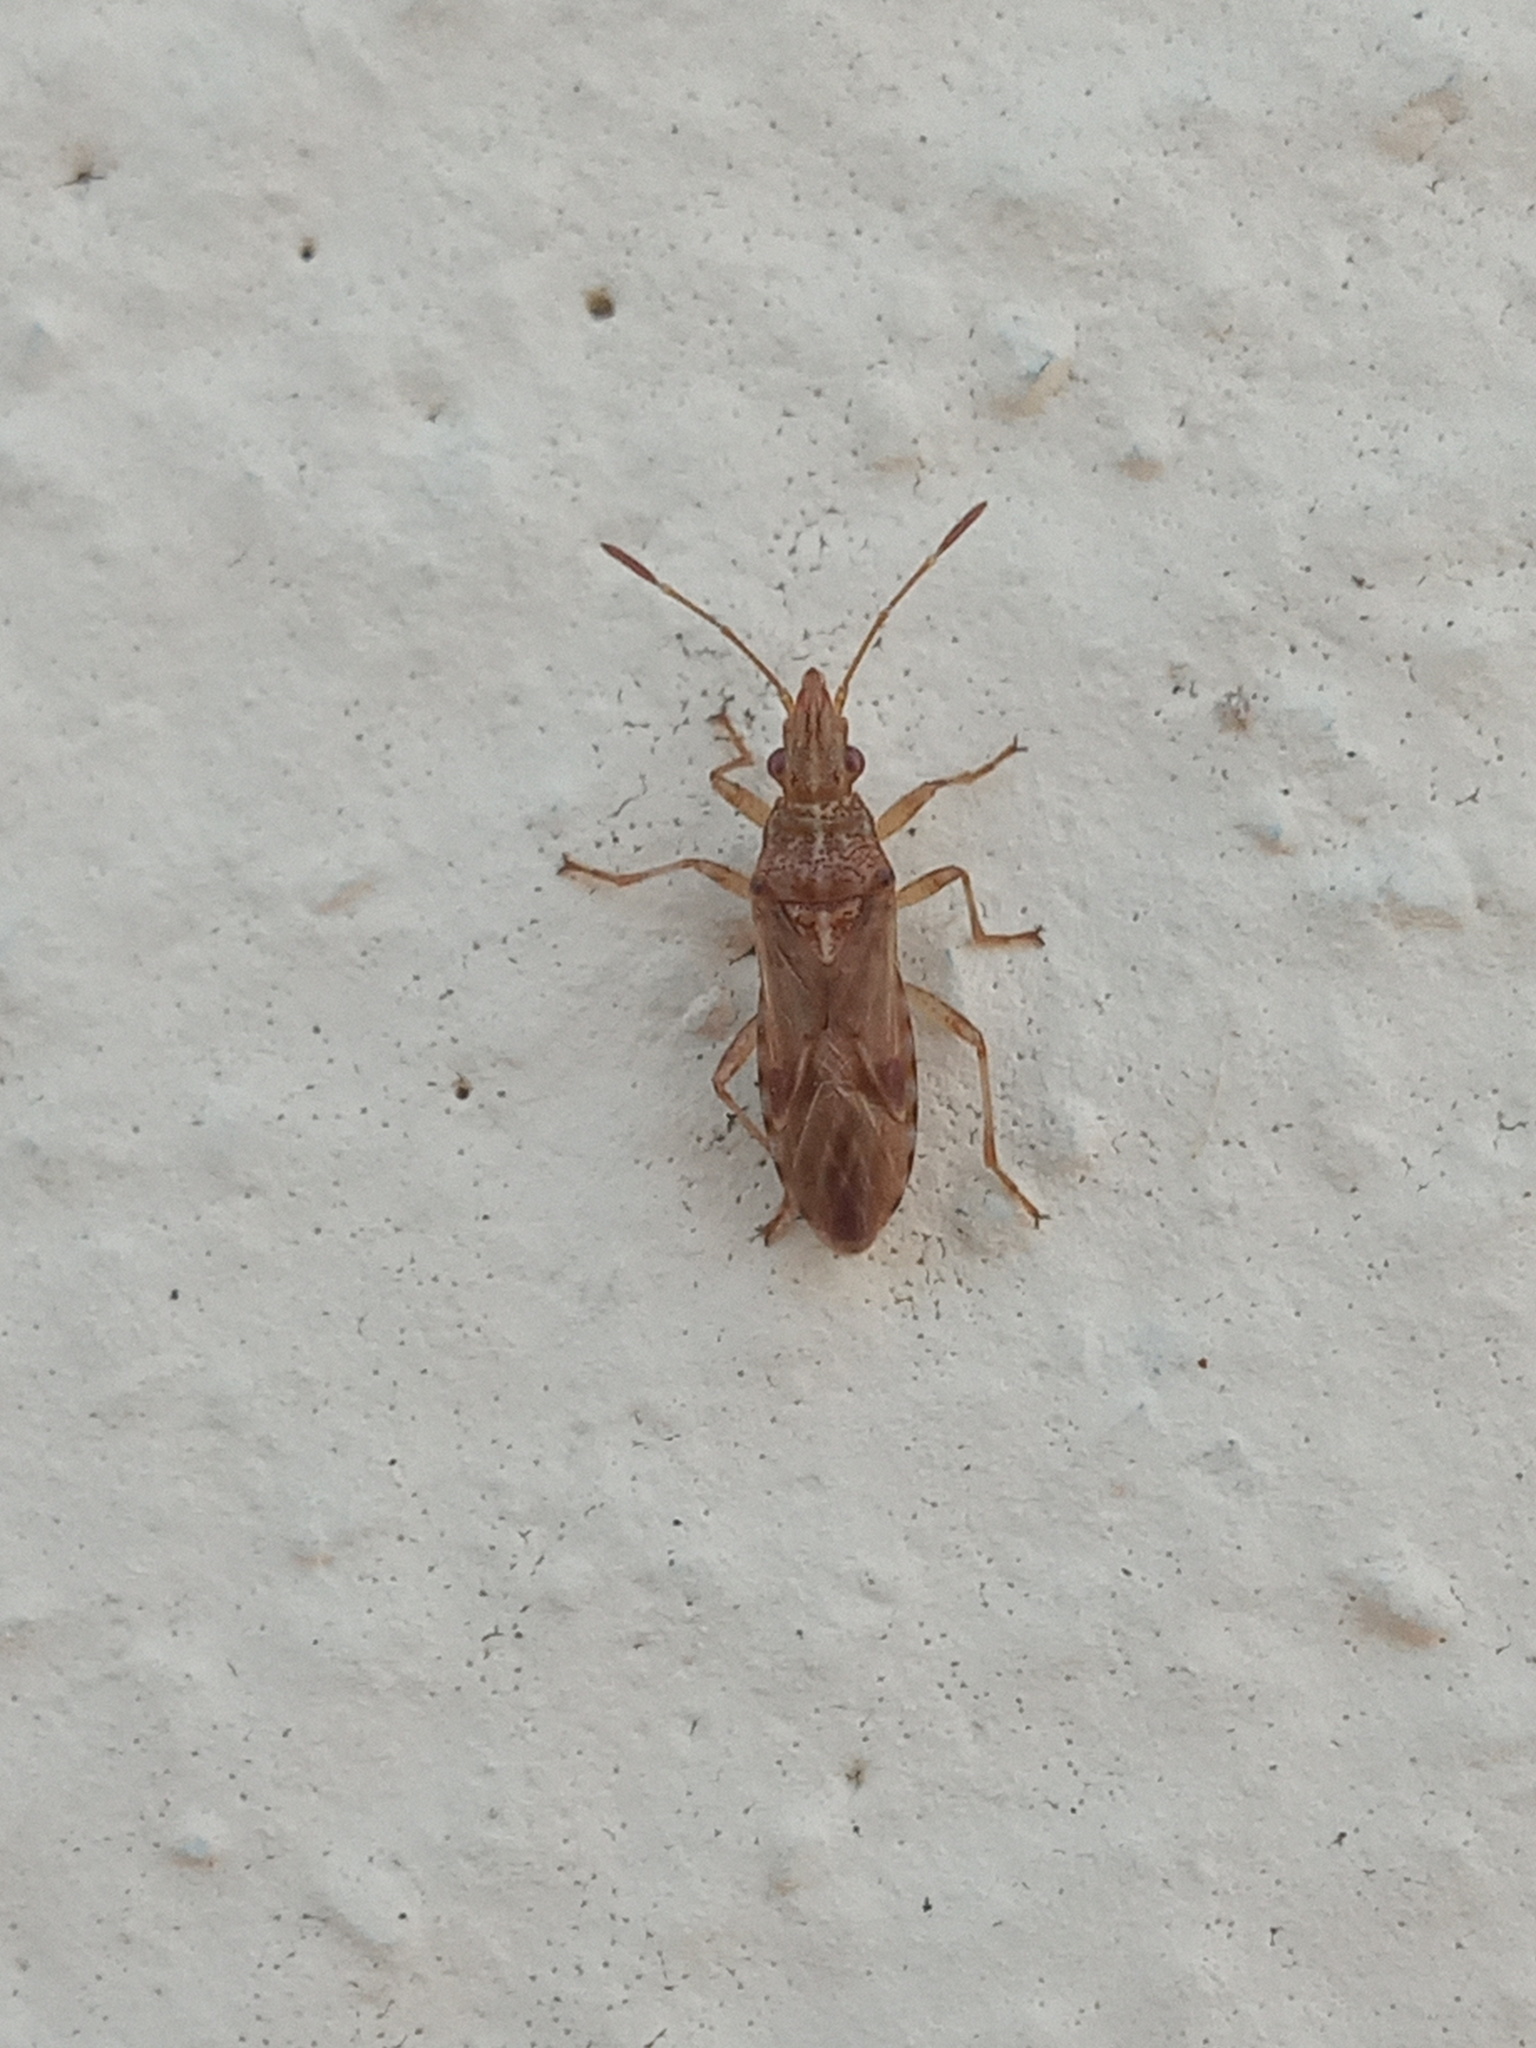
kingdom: Animalia
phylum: Arthropoda
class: Insecta
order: Hemiptera
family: Lygaeidae
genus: Belonochilus
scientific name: Belonochilus numenius
